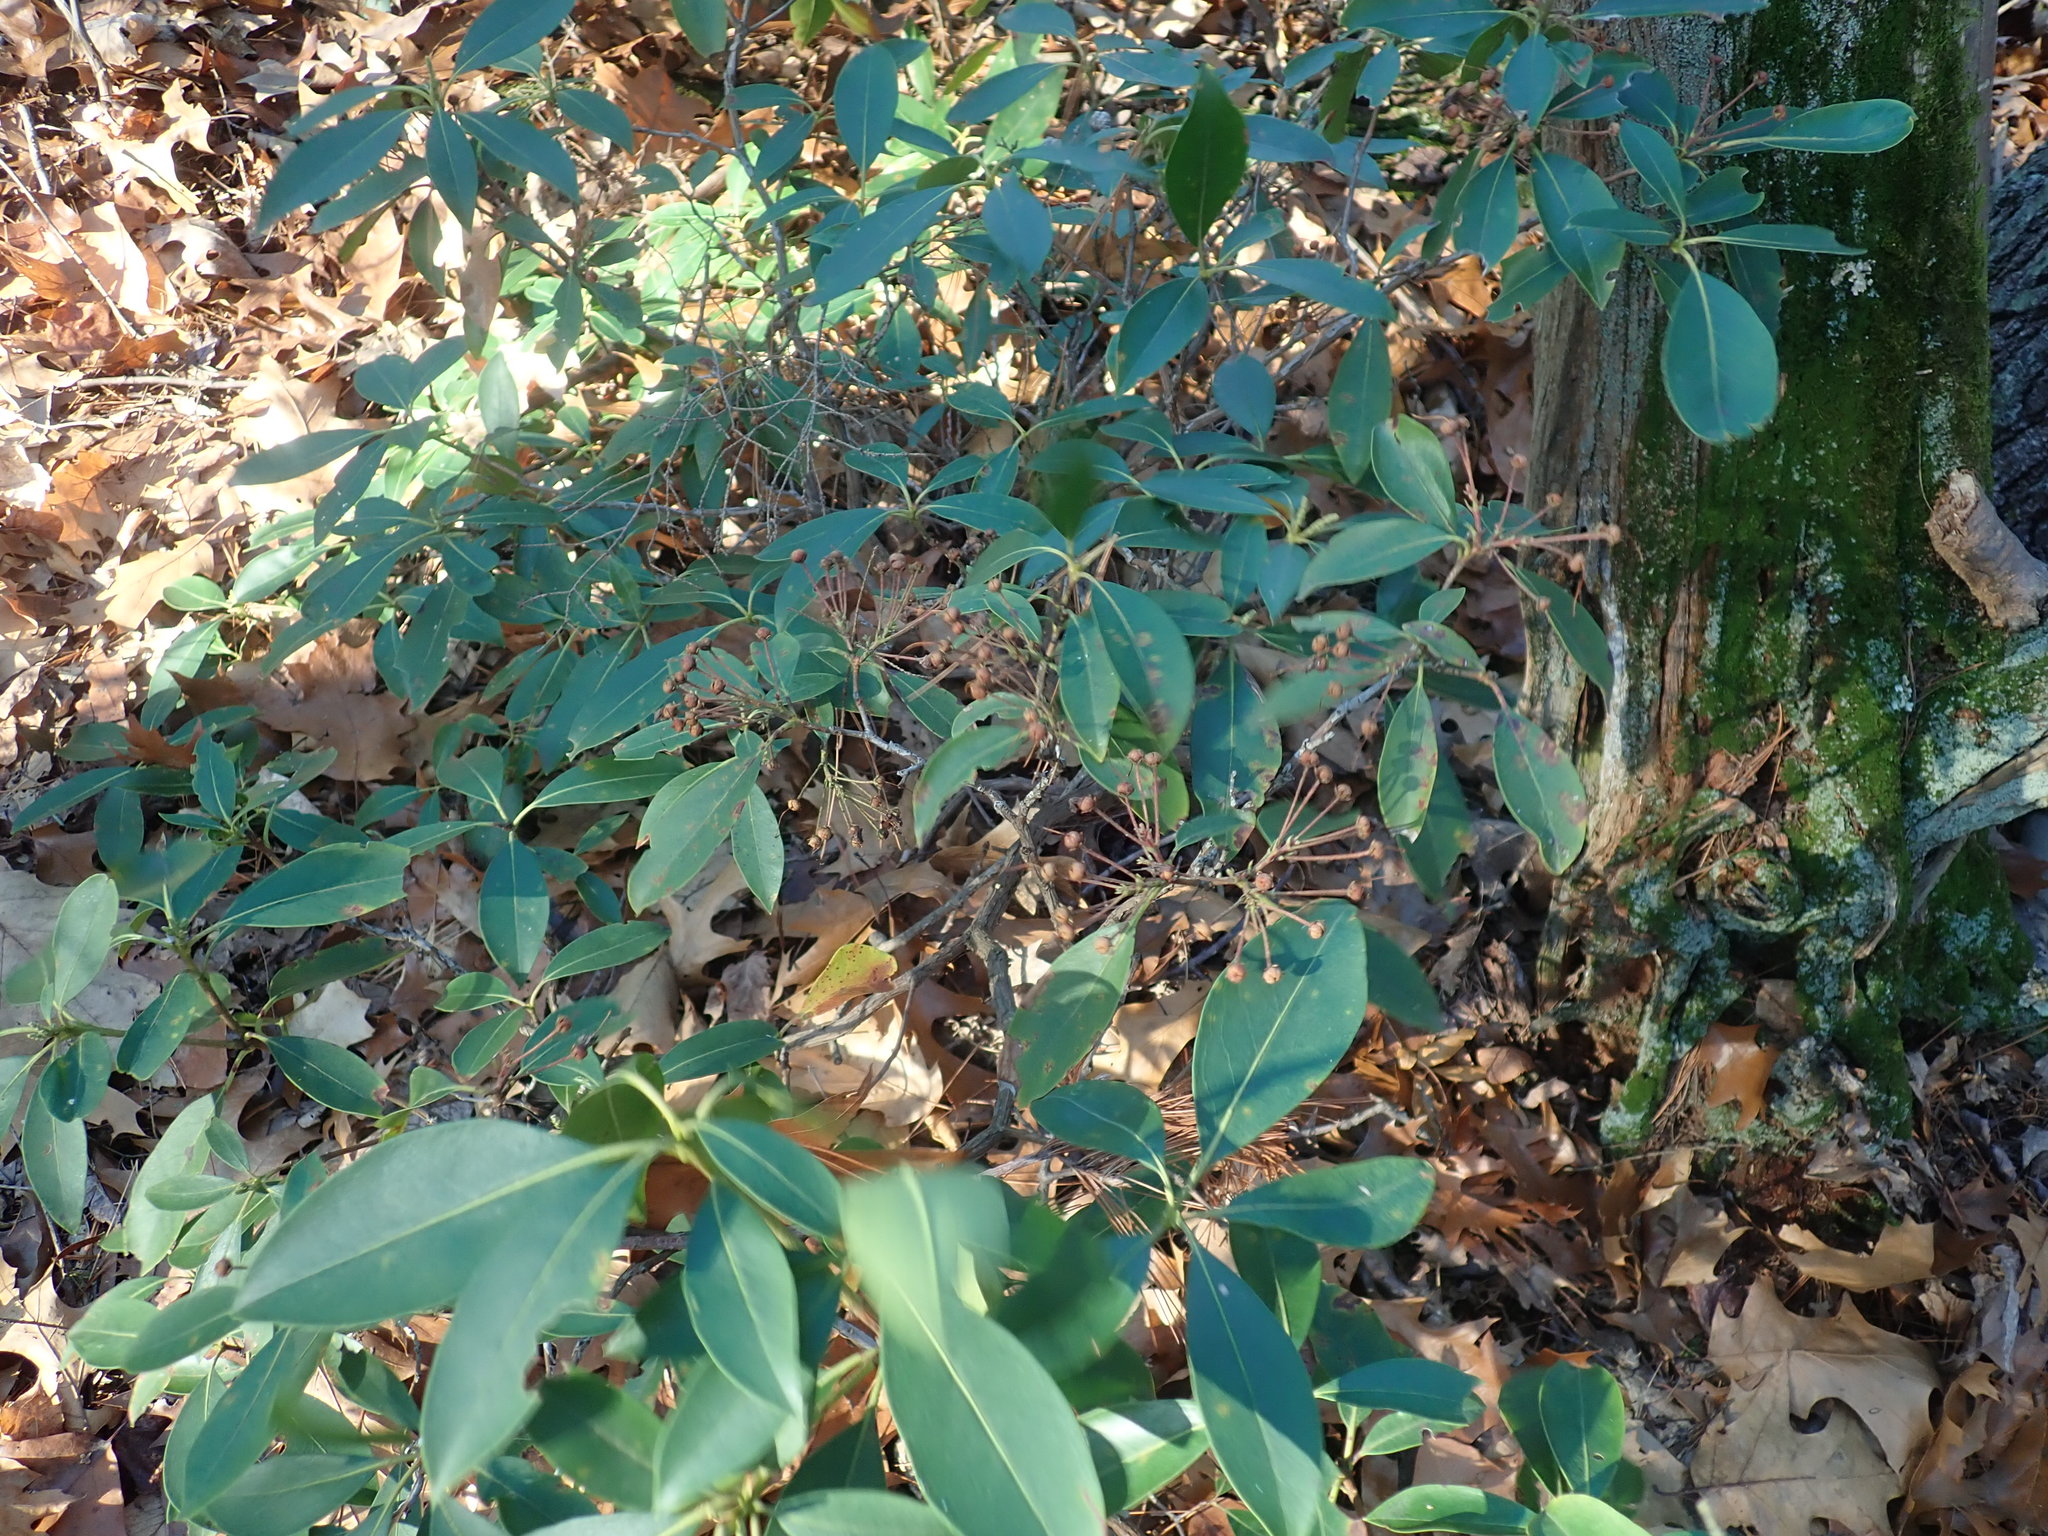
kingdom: Plantae
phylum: Tracheophyta
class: Magnoliopsida
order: Ericales
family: Ericaceae
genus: Kalmia
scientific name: Kalmia latifolia
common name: Mountain-laurel
